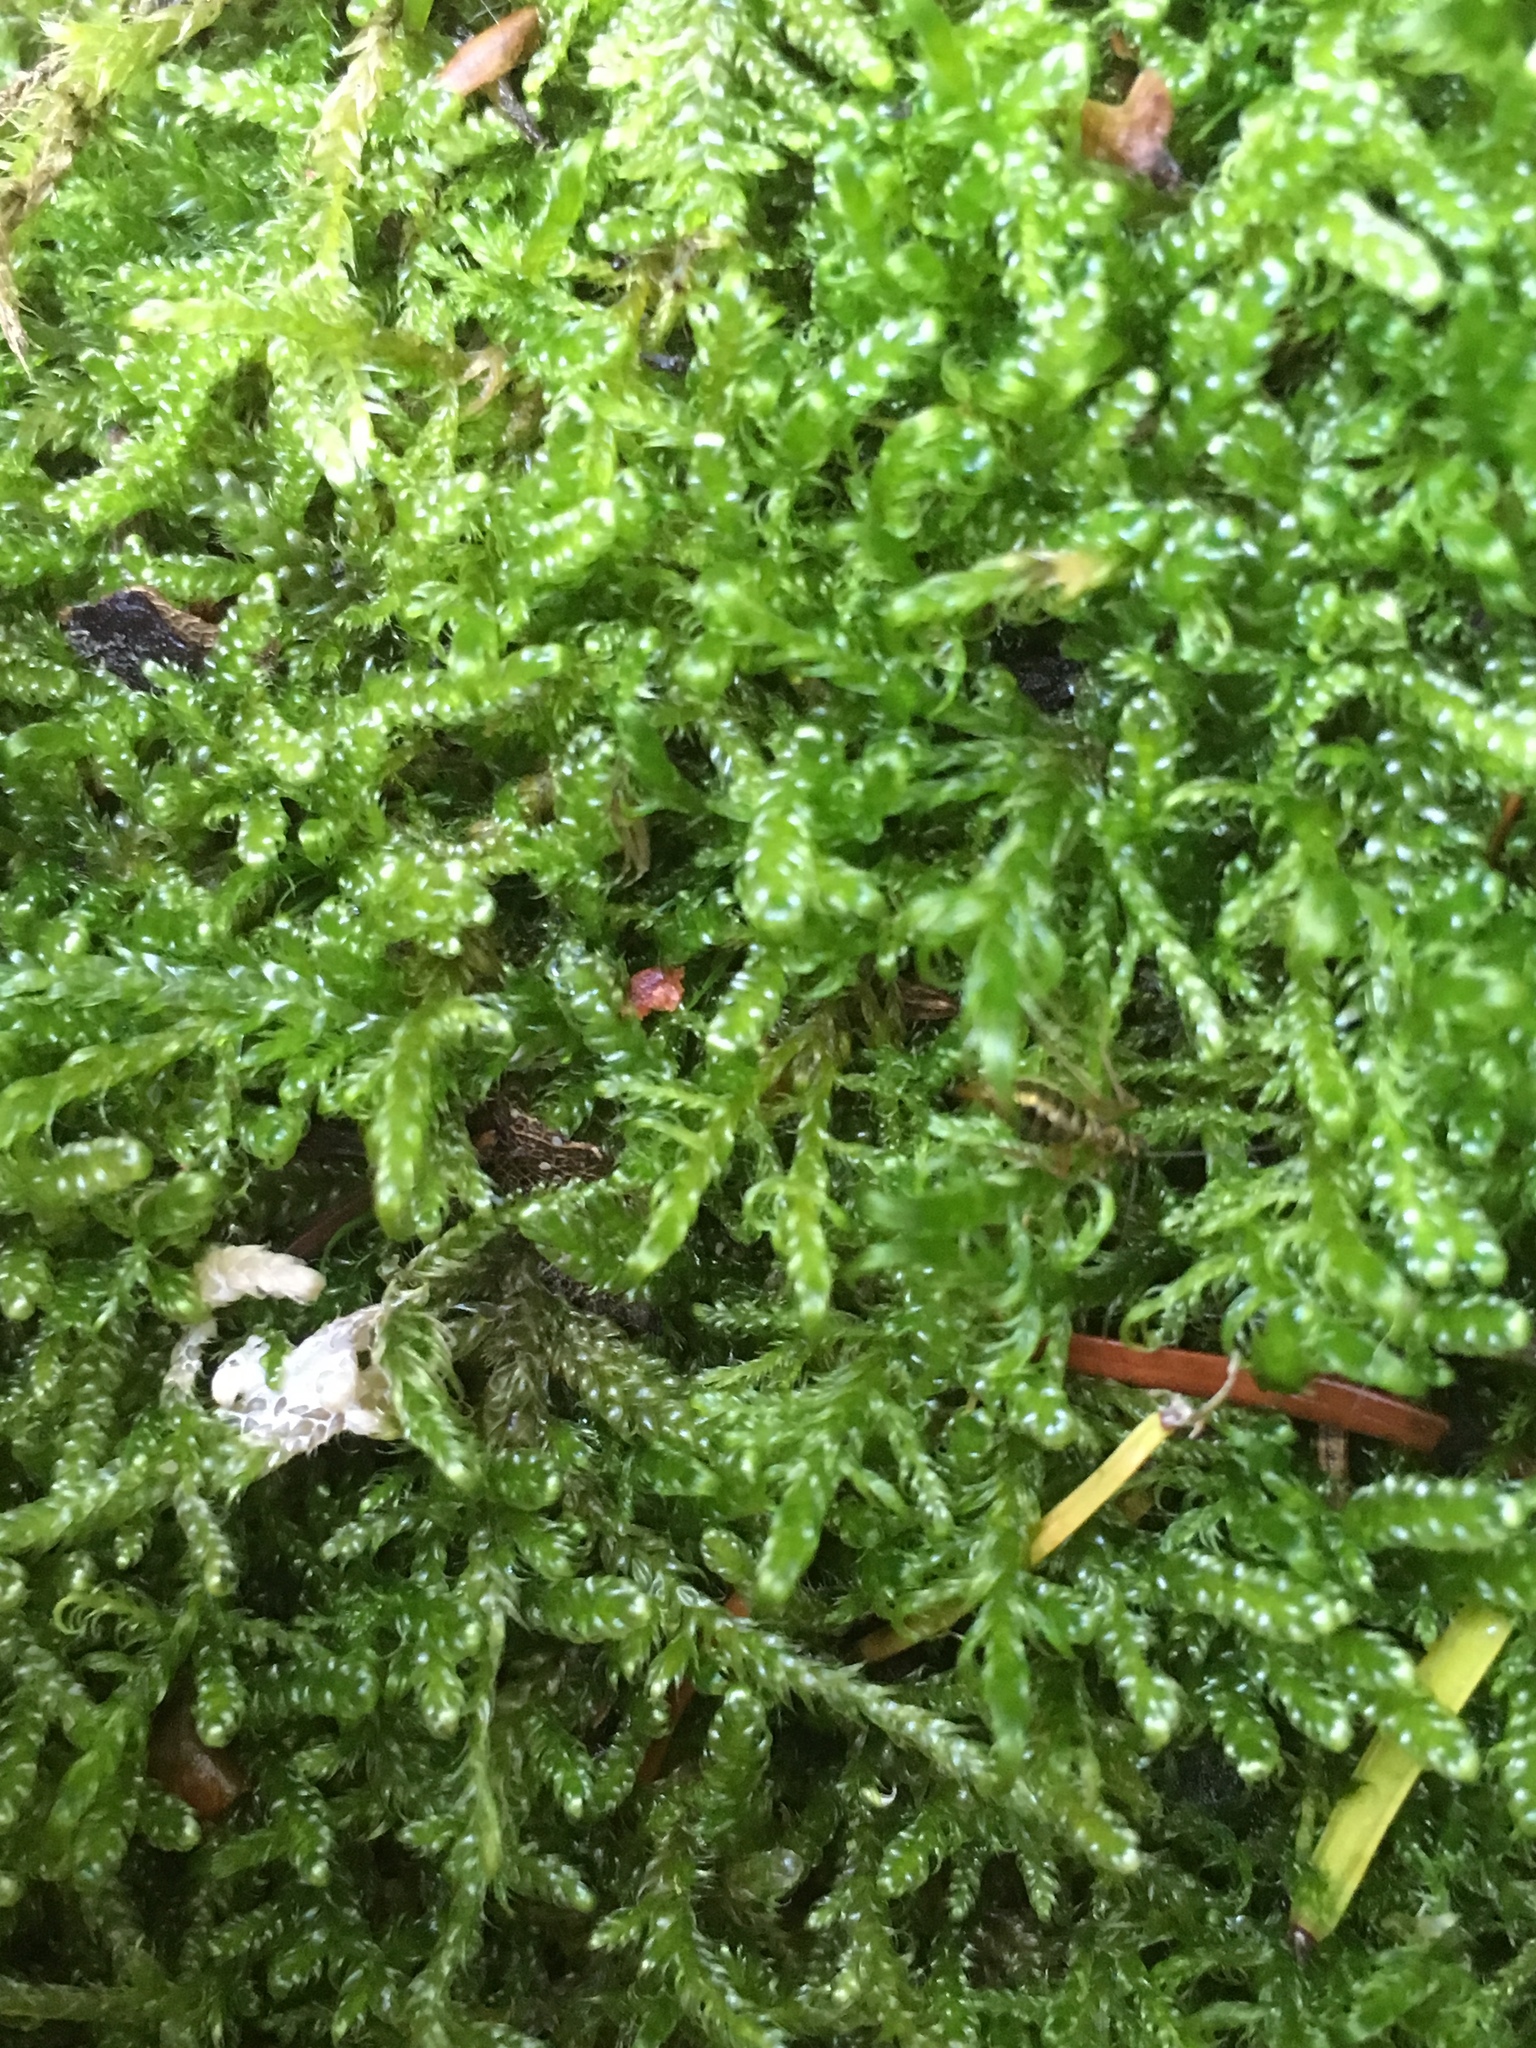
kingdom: Plantae
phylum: Bryophyta
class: Bryopsida
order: Hypnales
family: Hypnaceae
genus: Hypnum
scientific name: Hypnum cupressiforme
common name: Cypress-leaved plait-moss
